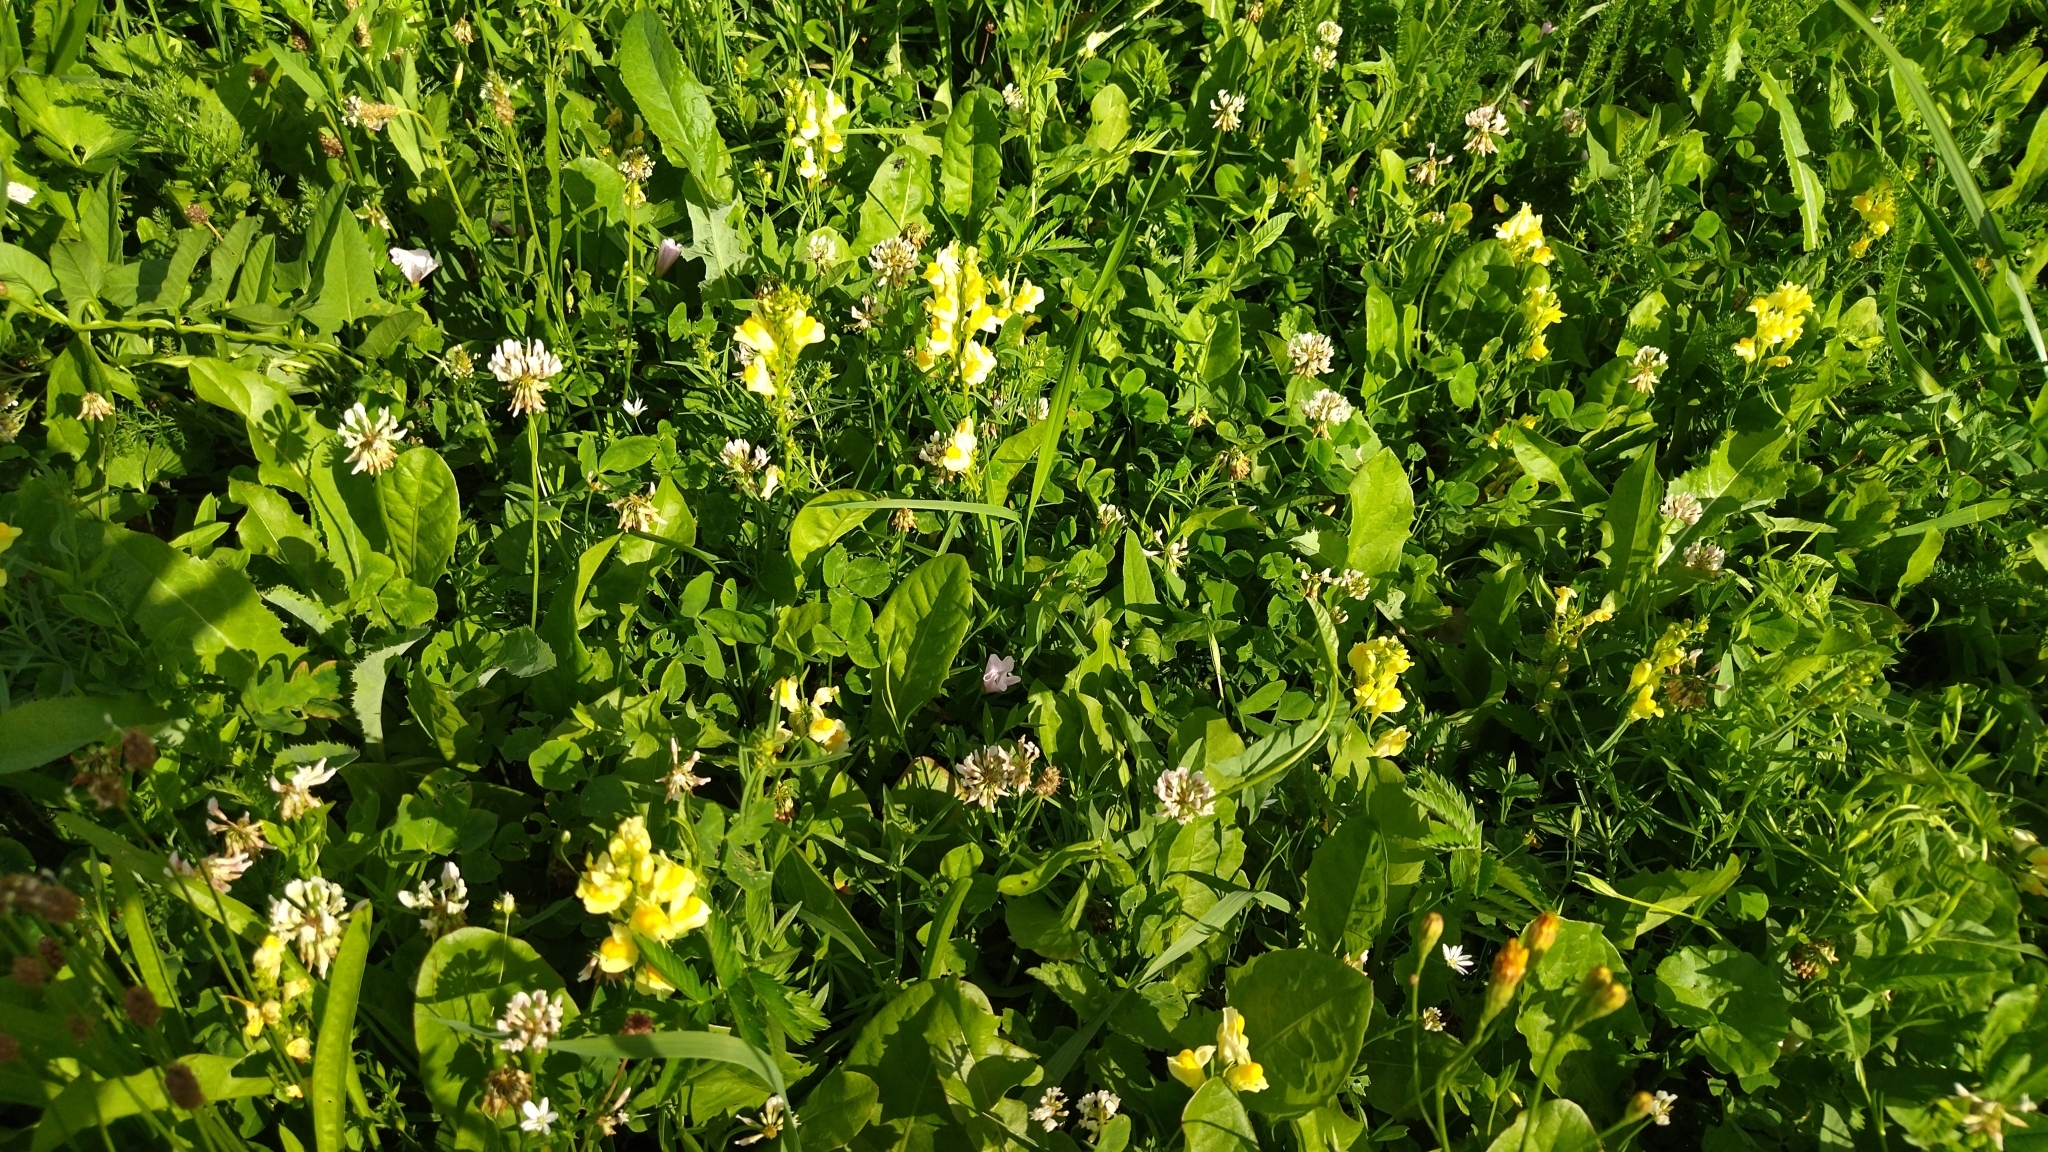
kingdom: Plantae
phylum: Tracheophyta
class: Magnoliopsida
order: Lamiales
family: Plantaginaceae
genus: Linaria
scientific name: Linaria vulgaris
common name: Butter and eggs
